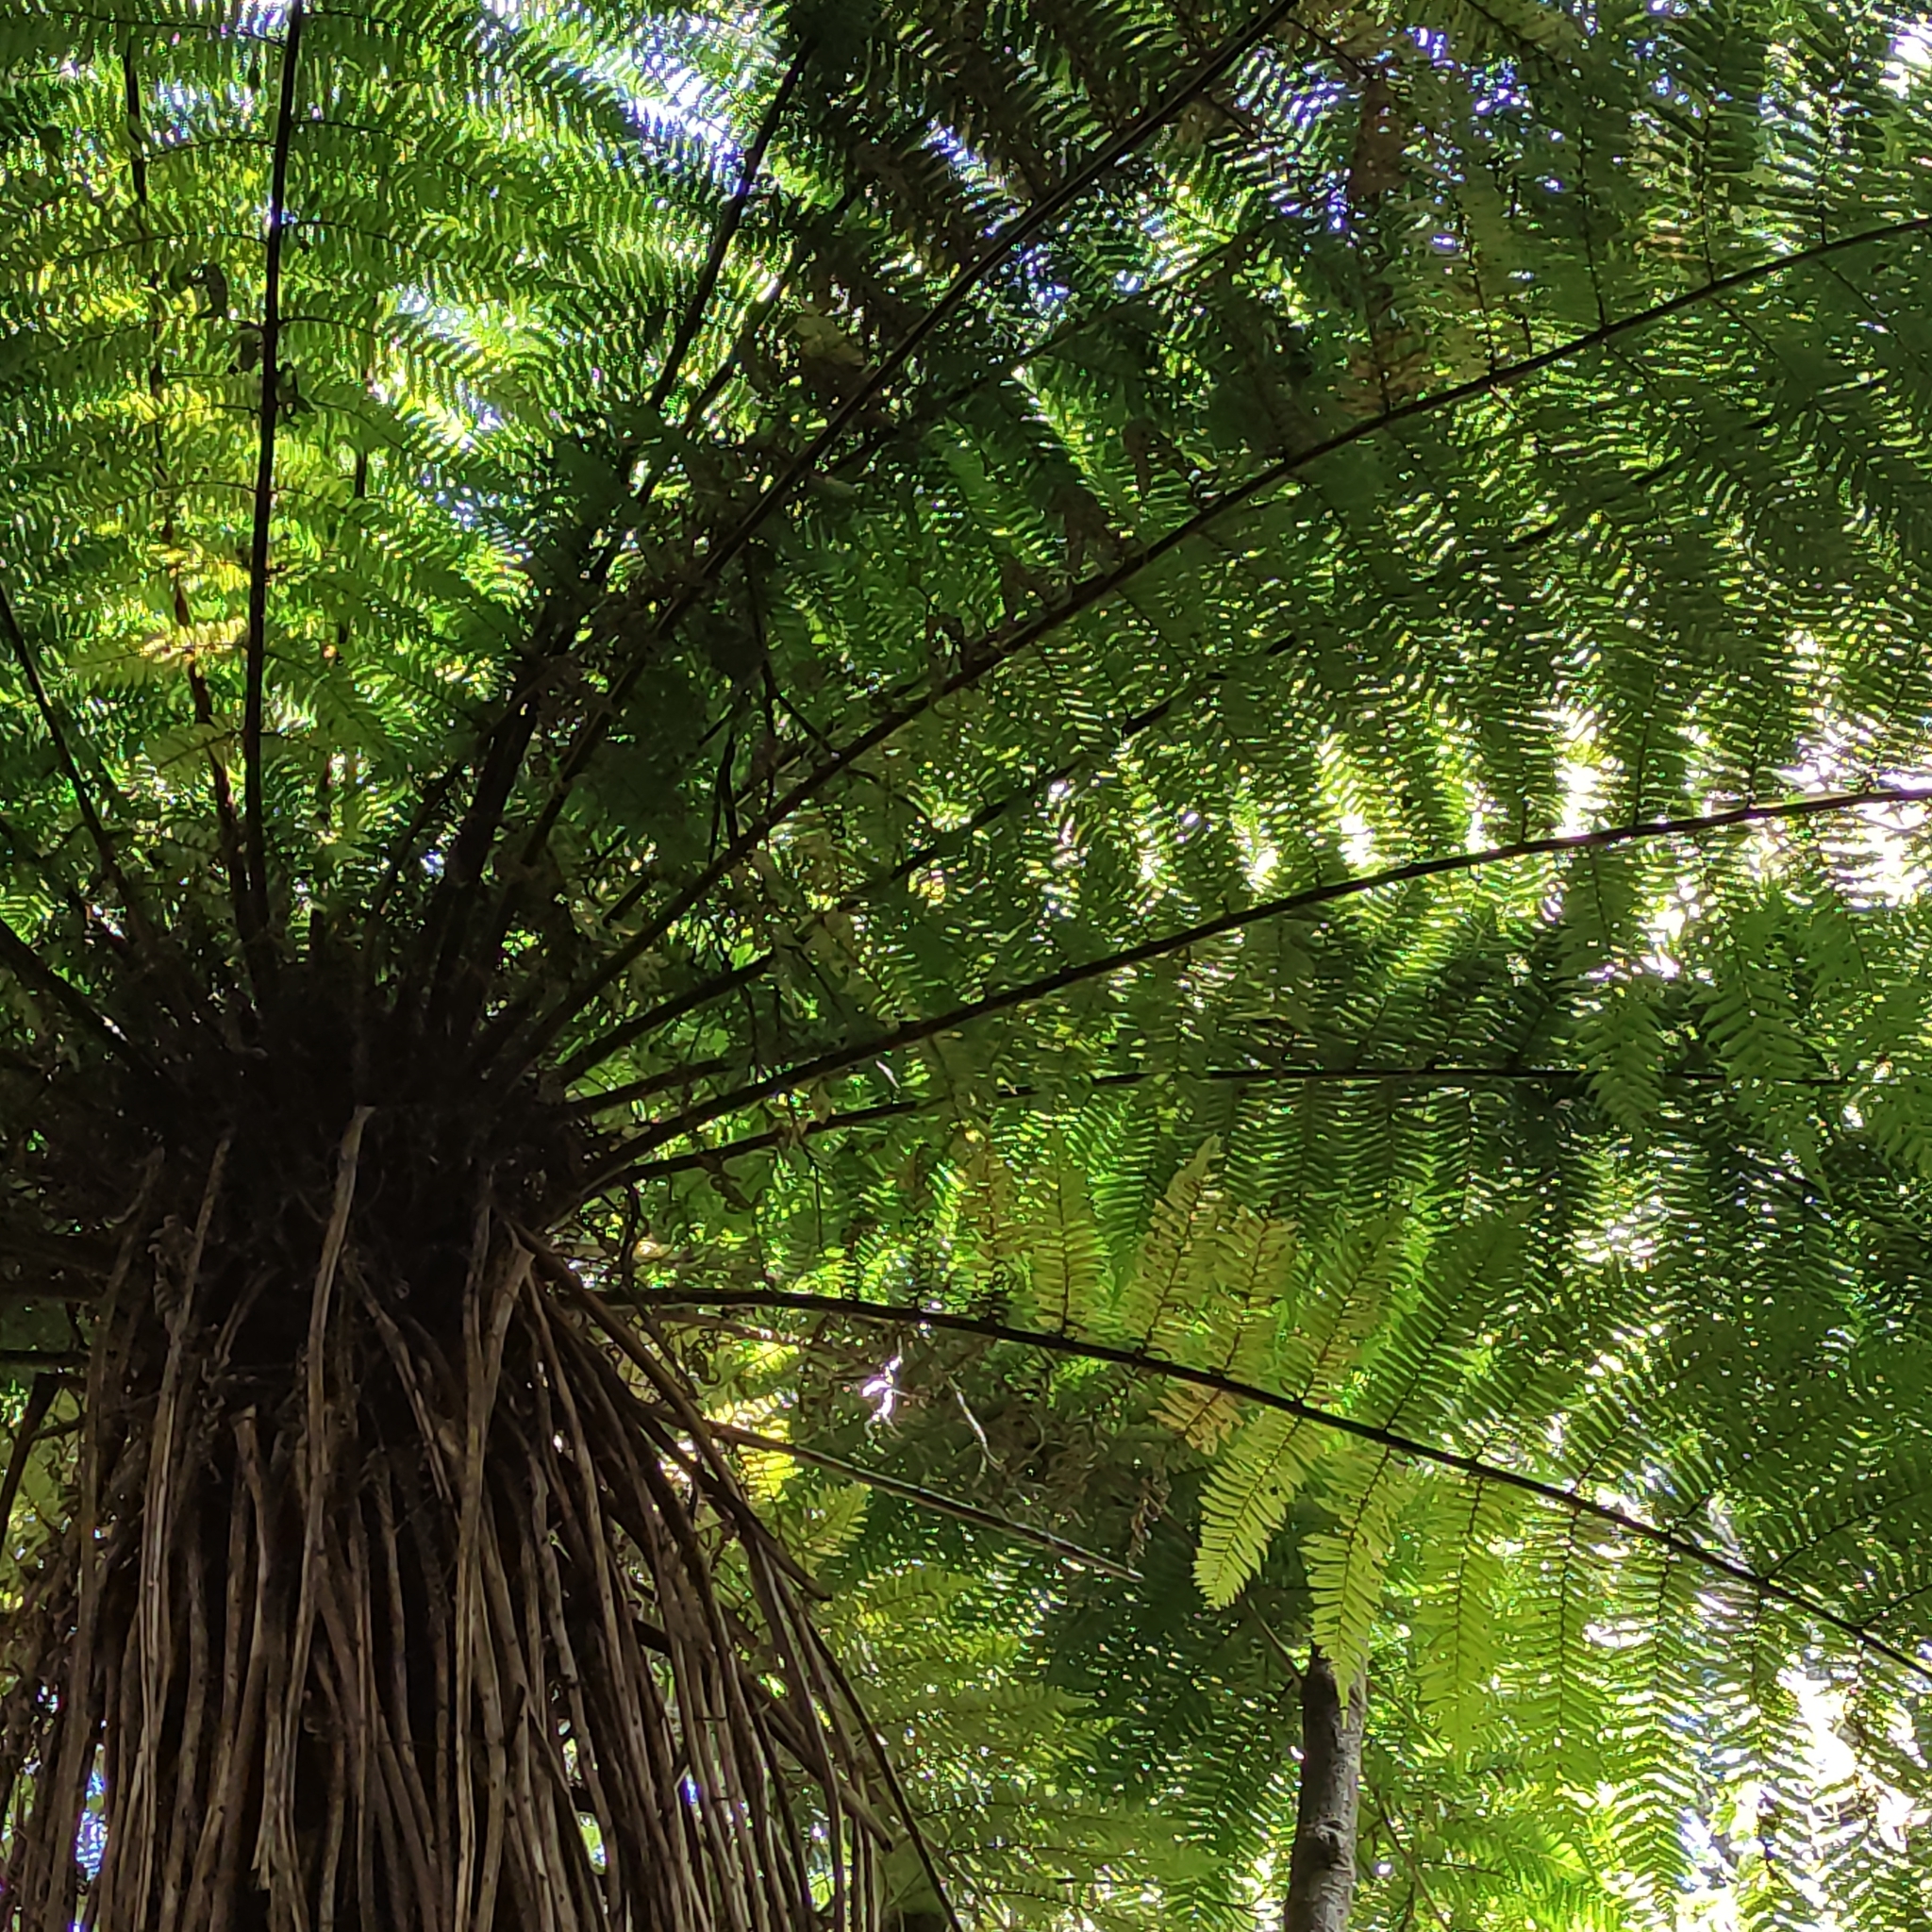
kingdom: Plantae
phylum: Tracheophyta
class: Polypodiopsida
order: Cyatheales
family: Cyatheaceae
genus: Alsophila
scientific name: Alsophila smithii
